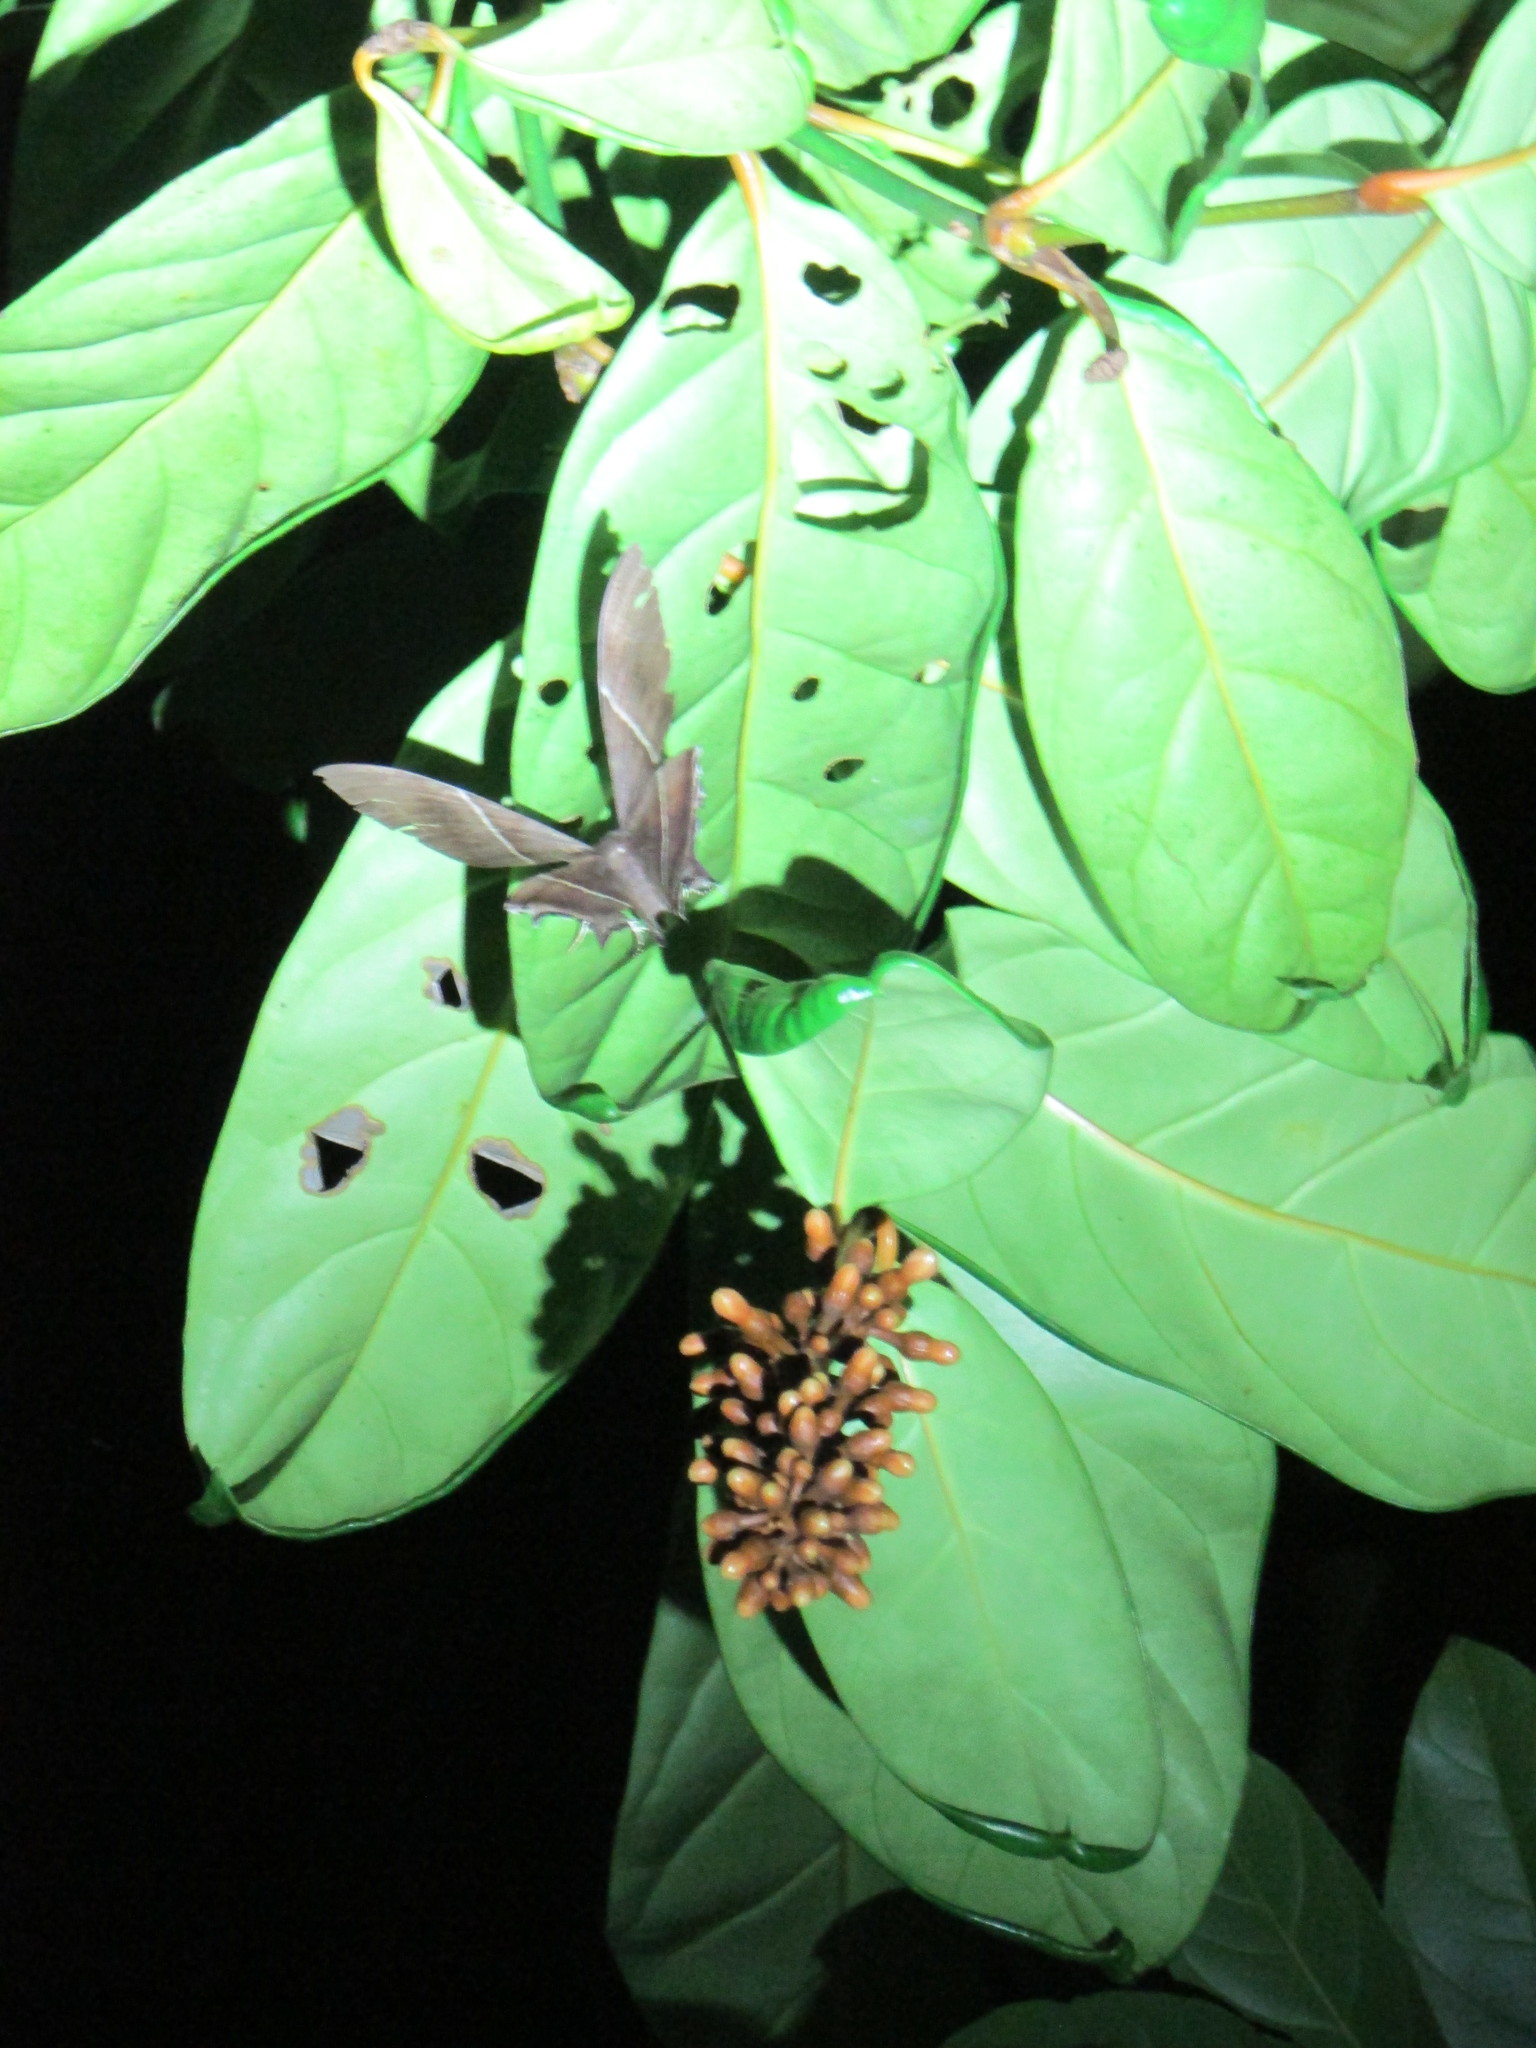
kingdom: Animalia
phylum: Arthropoda
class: Insecta
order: Lepidoptera
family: Uraniidae
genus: Lyssa
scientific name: Lyssa zampa
